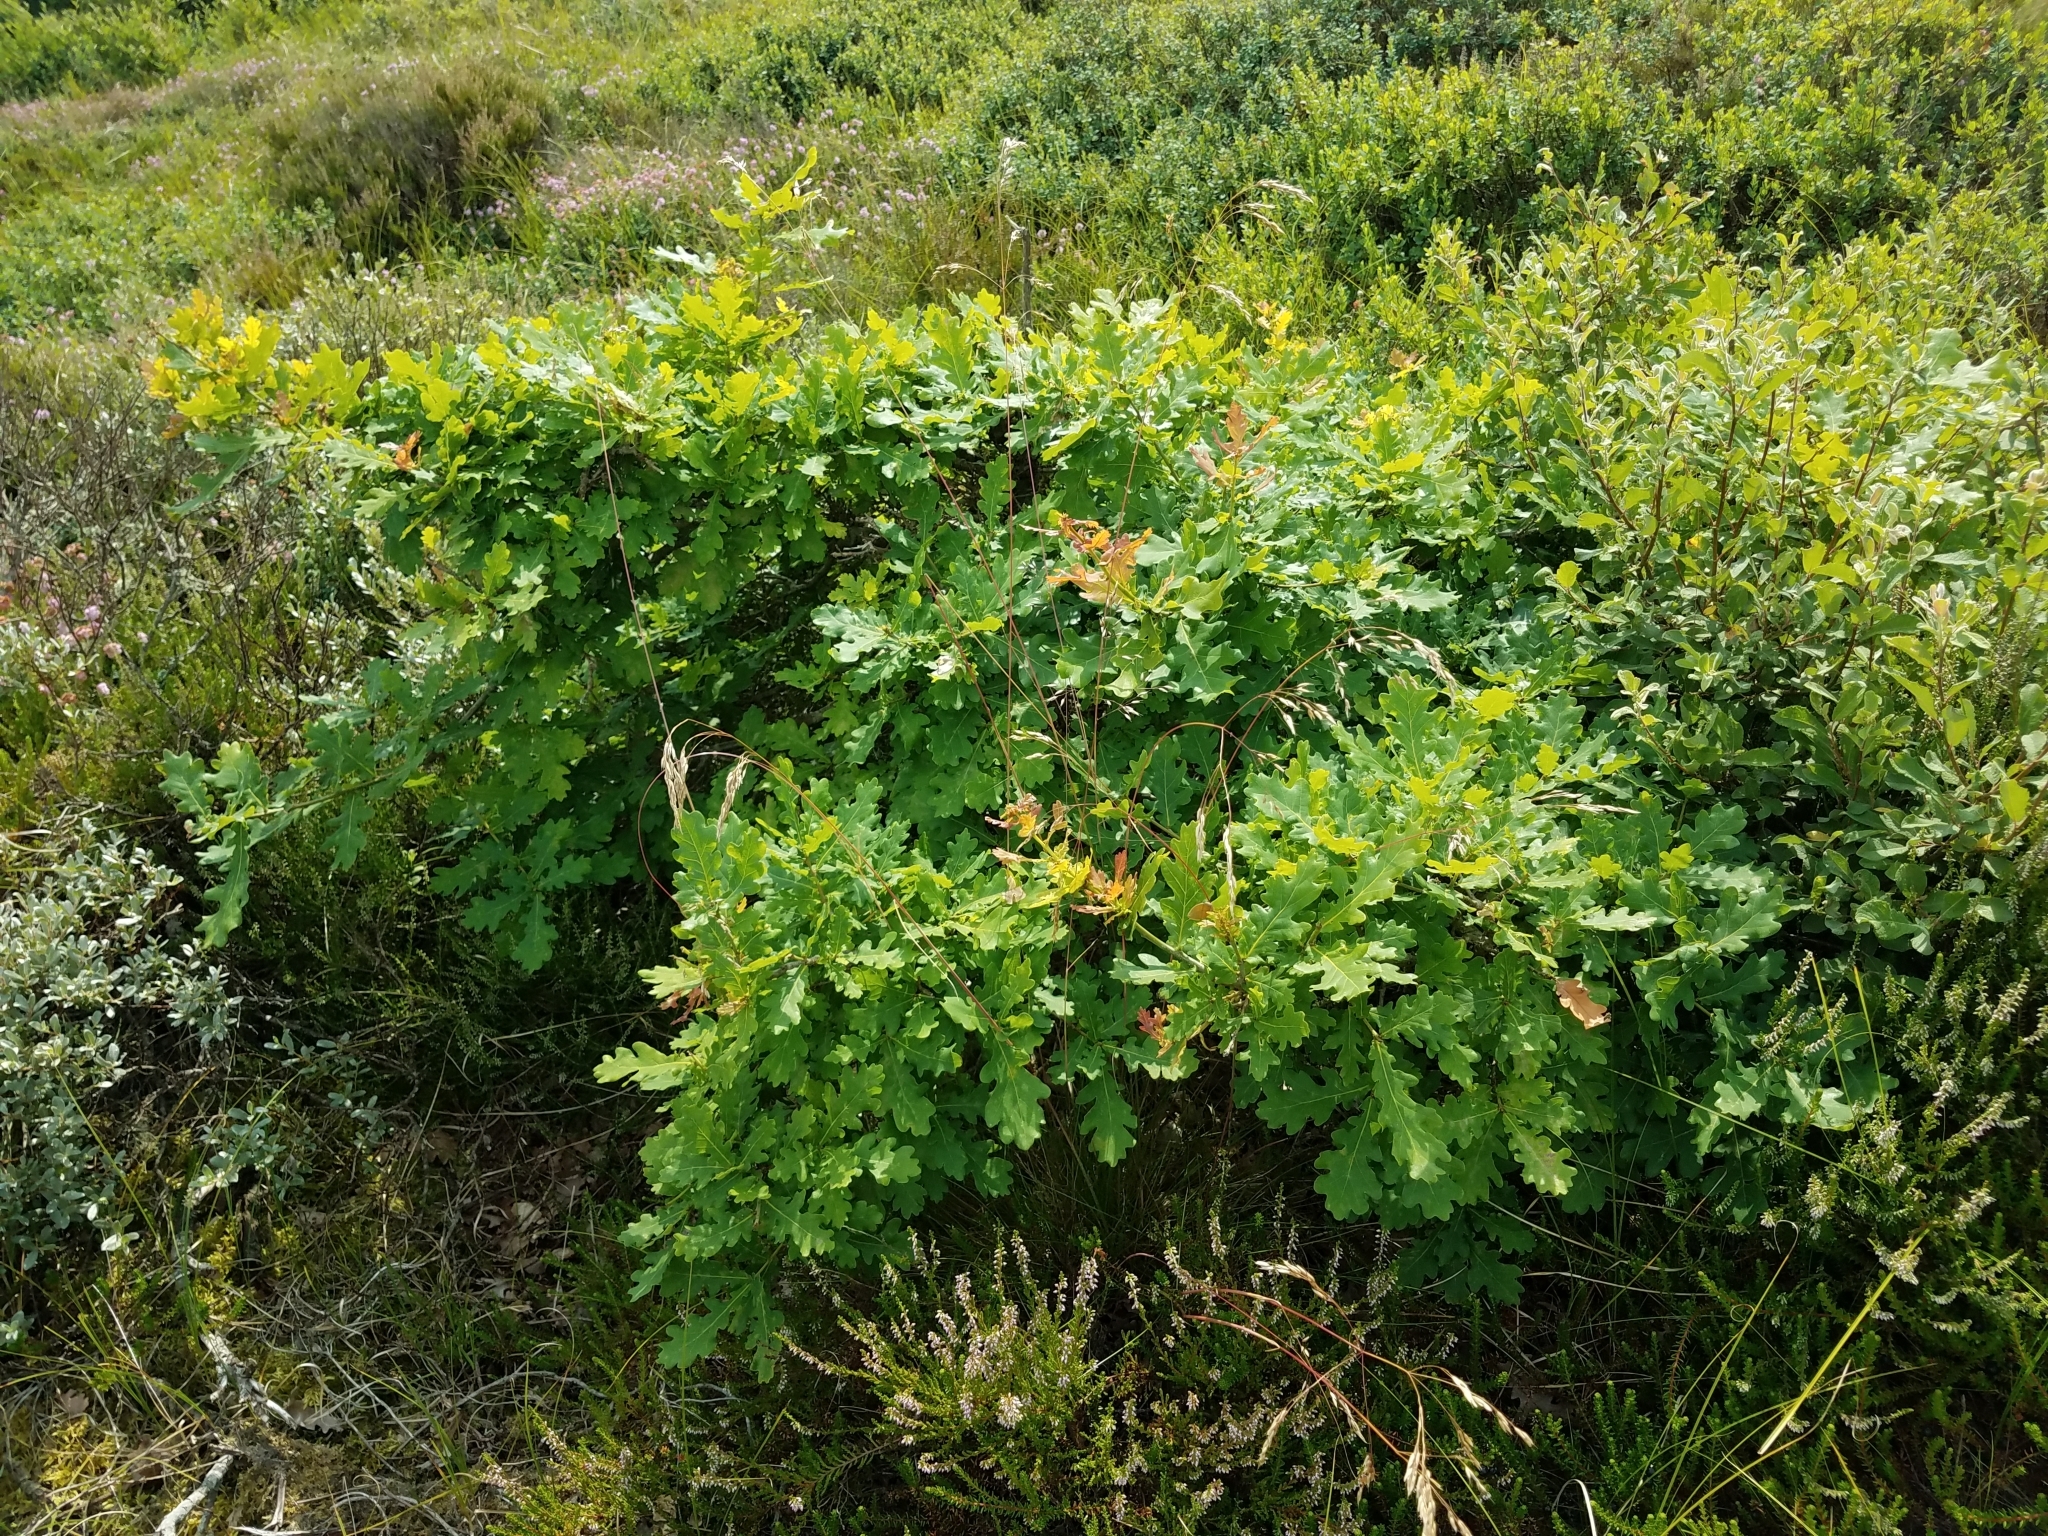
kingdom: Plantae
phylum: Tracheophyta
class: Magnoliopsida
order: Fagales
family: Fagaceae
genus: Quercus
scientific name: Quercus robur
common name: Pedunculate oak
